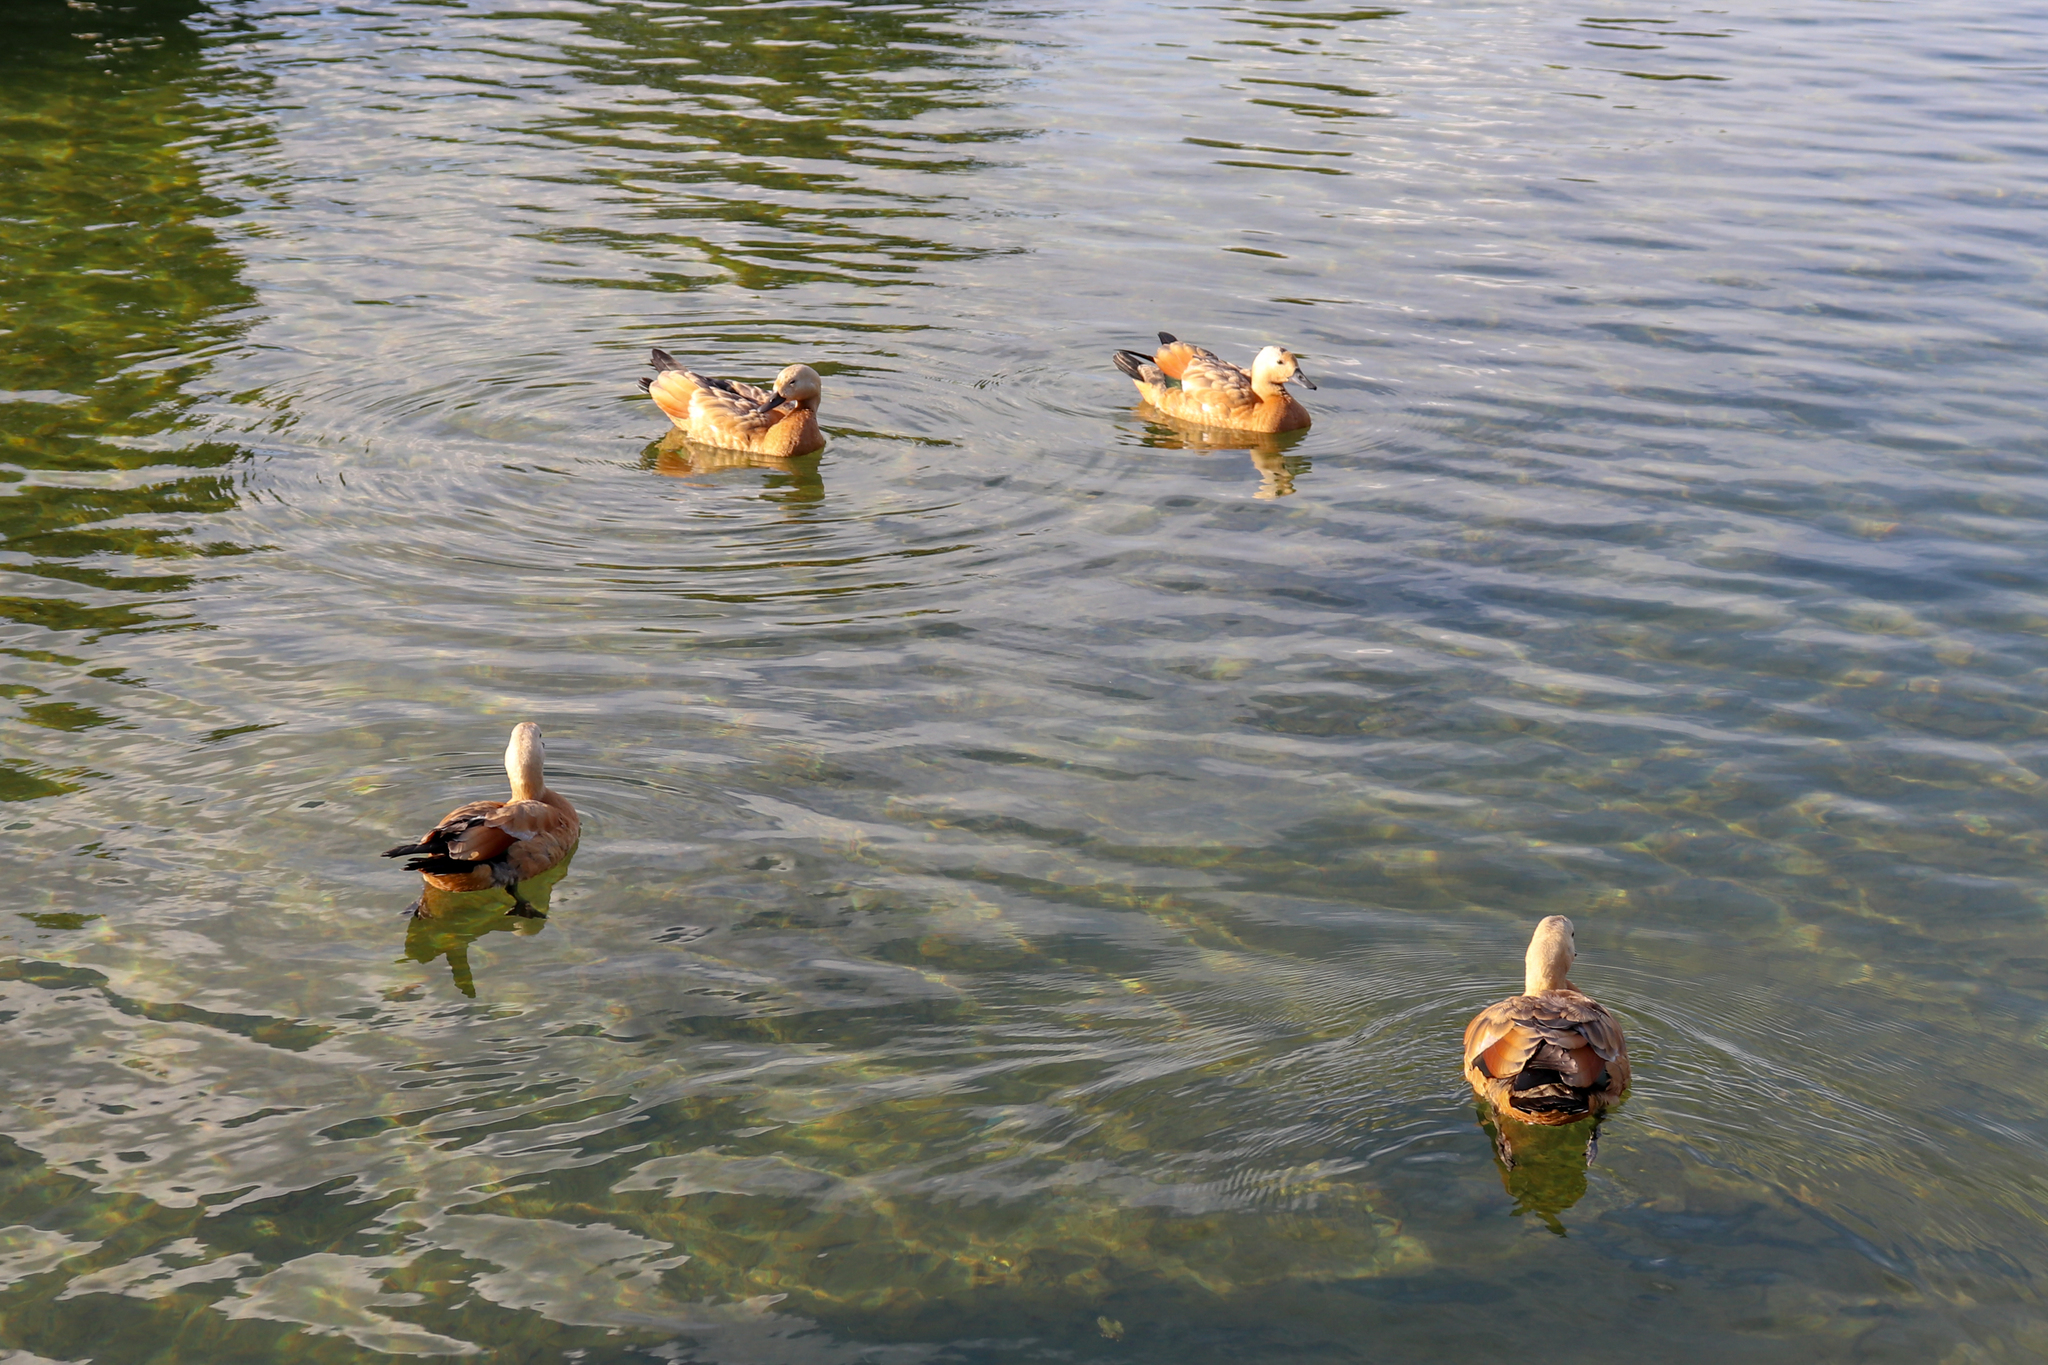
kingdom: Animalia
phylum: Chordata
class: Aves
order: Anseriformes
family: Anatidae
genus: Tadorna
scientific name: Tadorna ferruginea
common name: Ruddy shelduck
